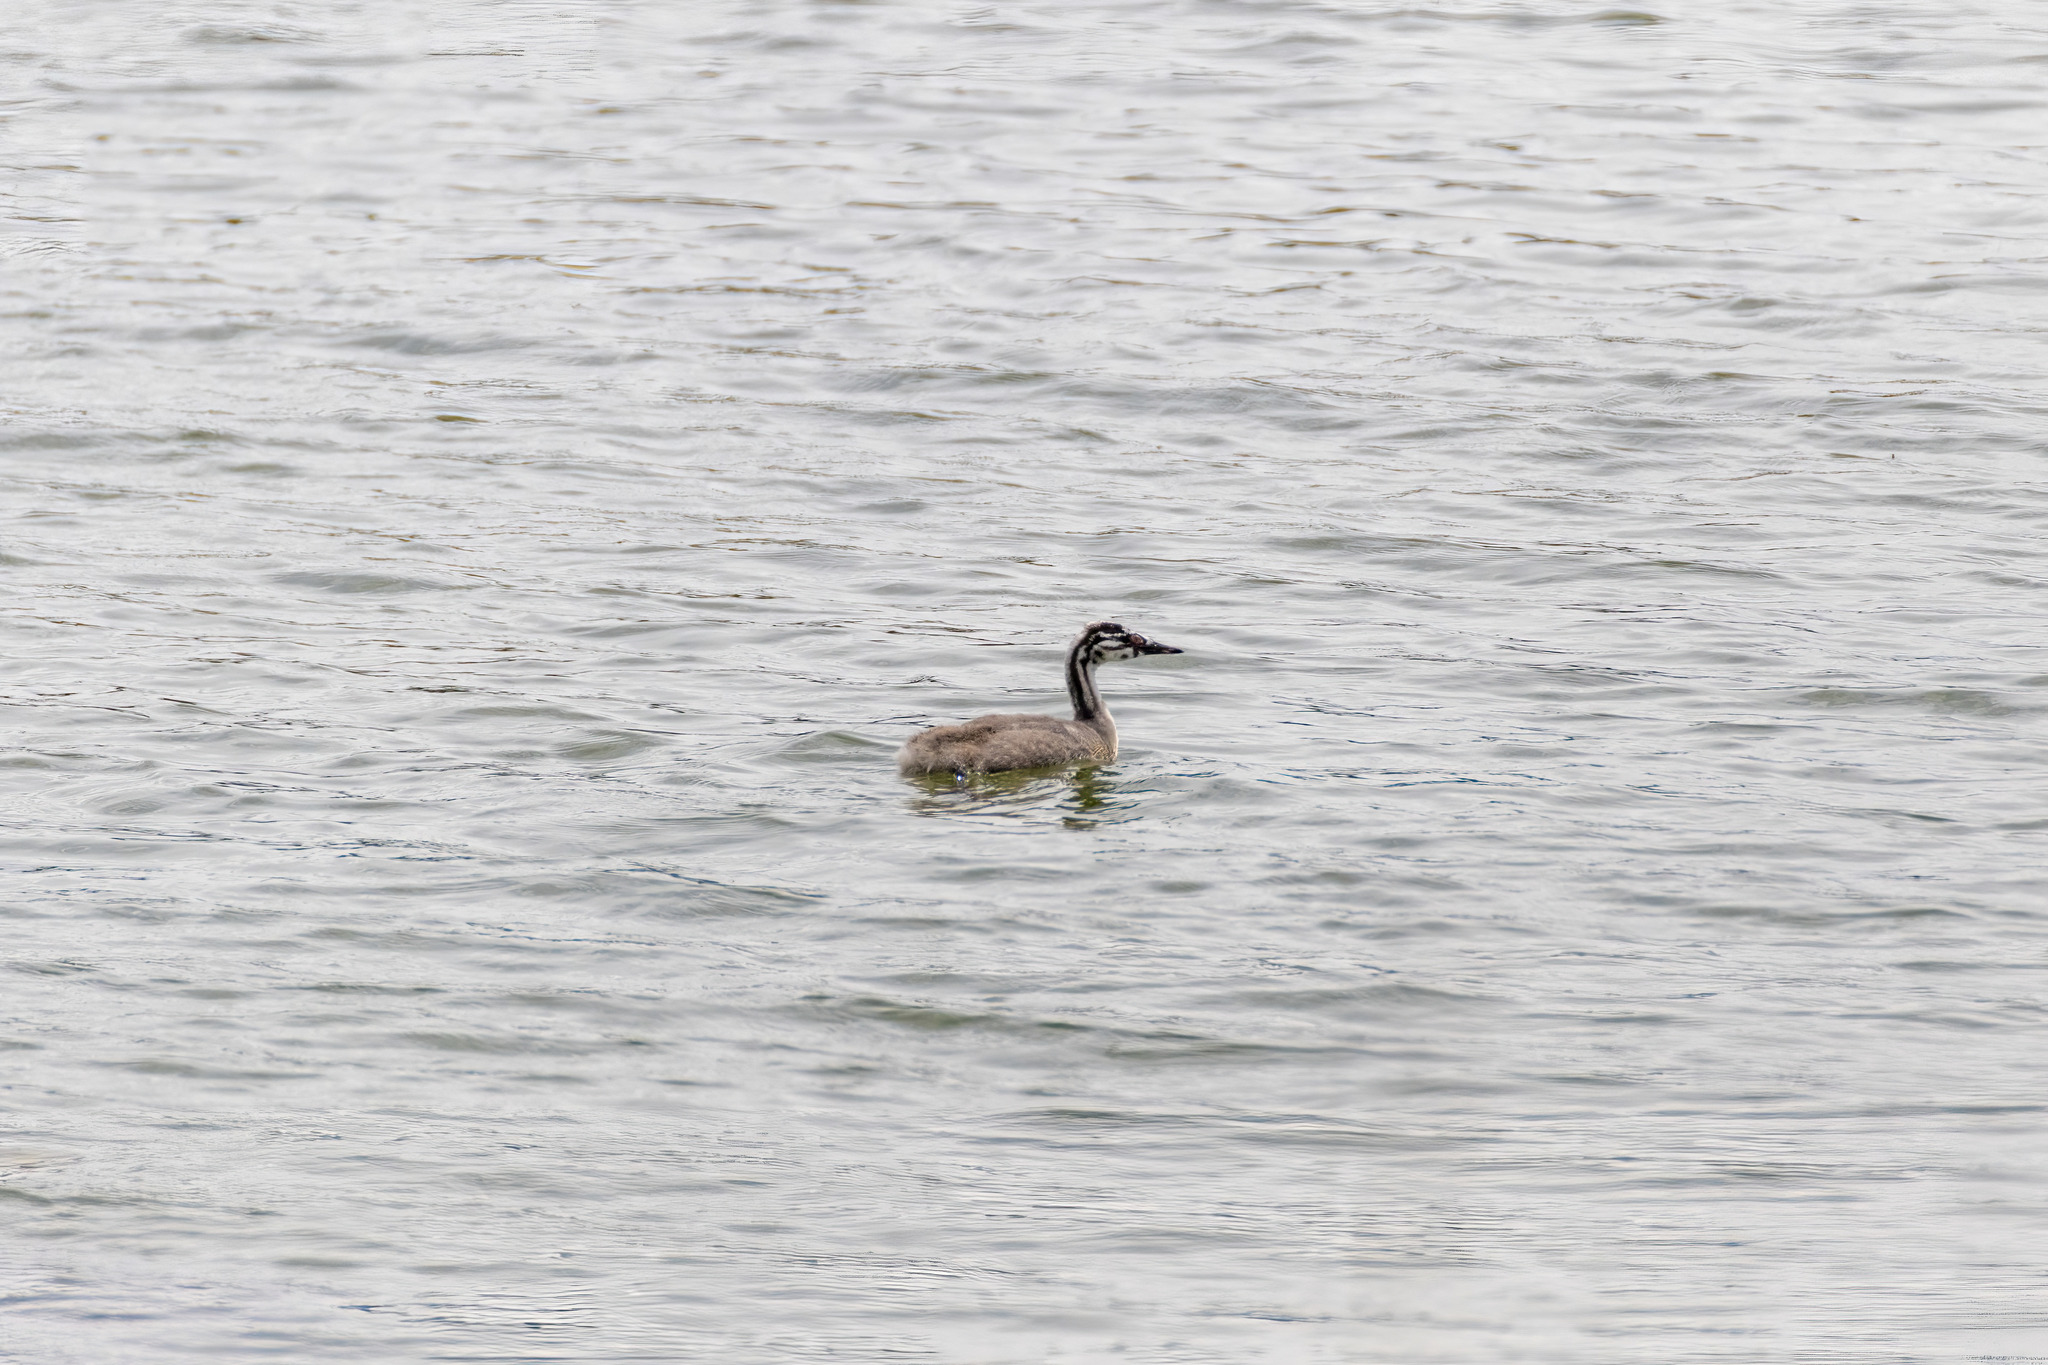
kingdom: Animalia
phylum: Chordata
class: Aves
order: Podicipediformes
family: Podicipedidae
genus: Podiceps
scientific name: Podiceps cristatus
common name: Great crested grebe
